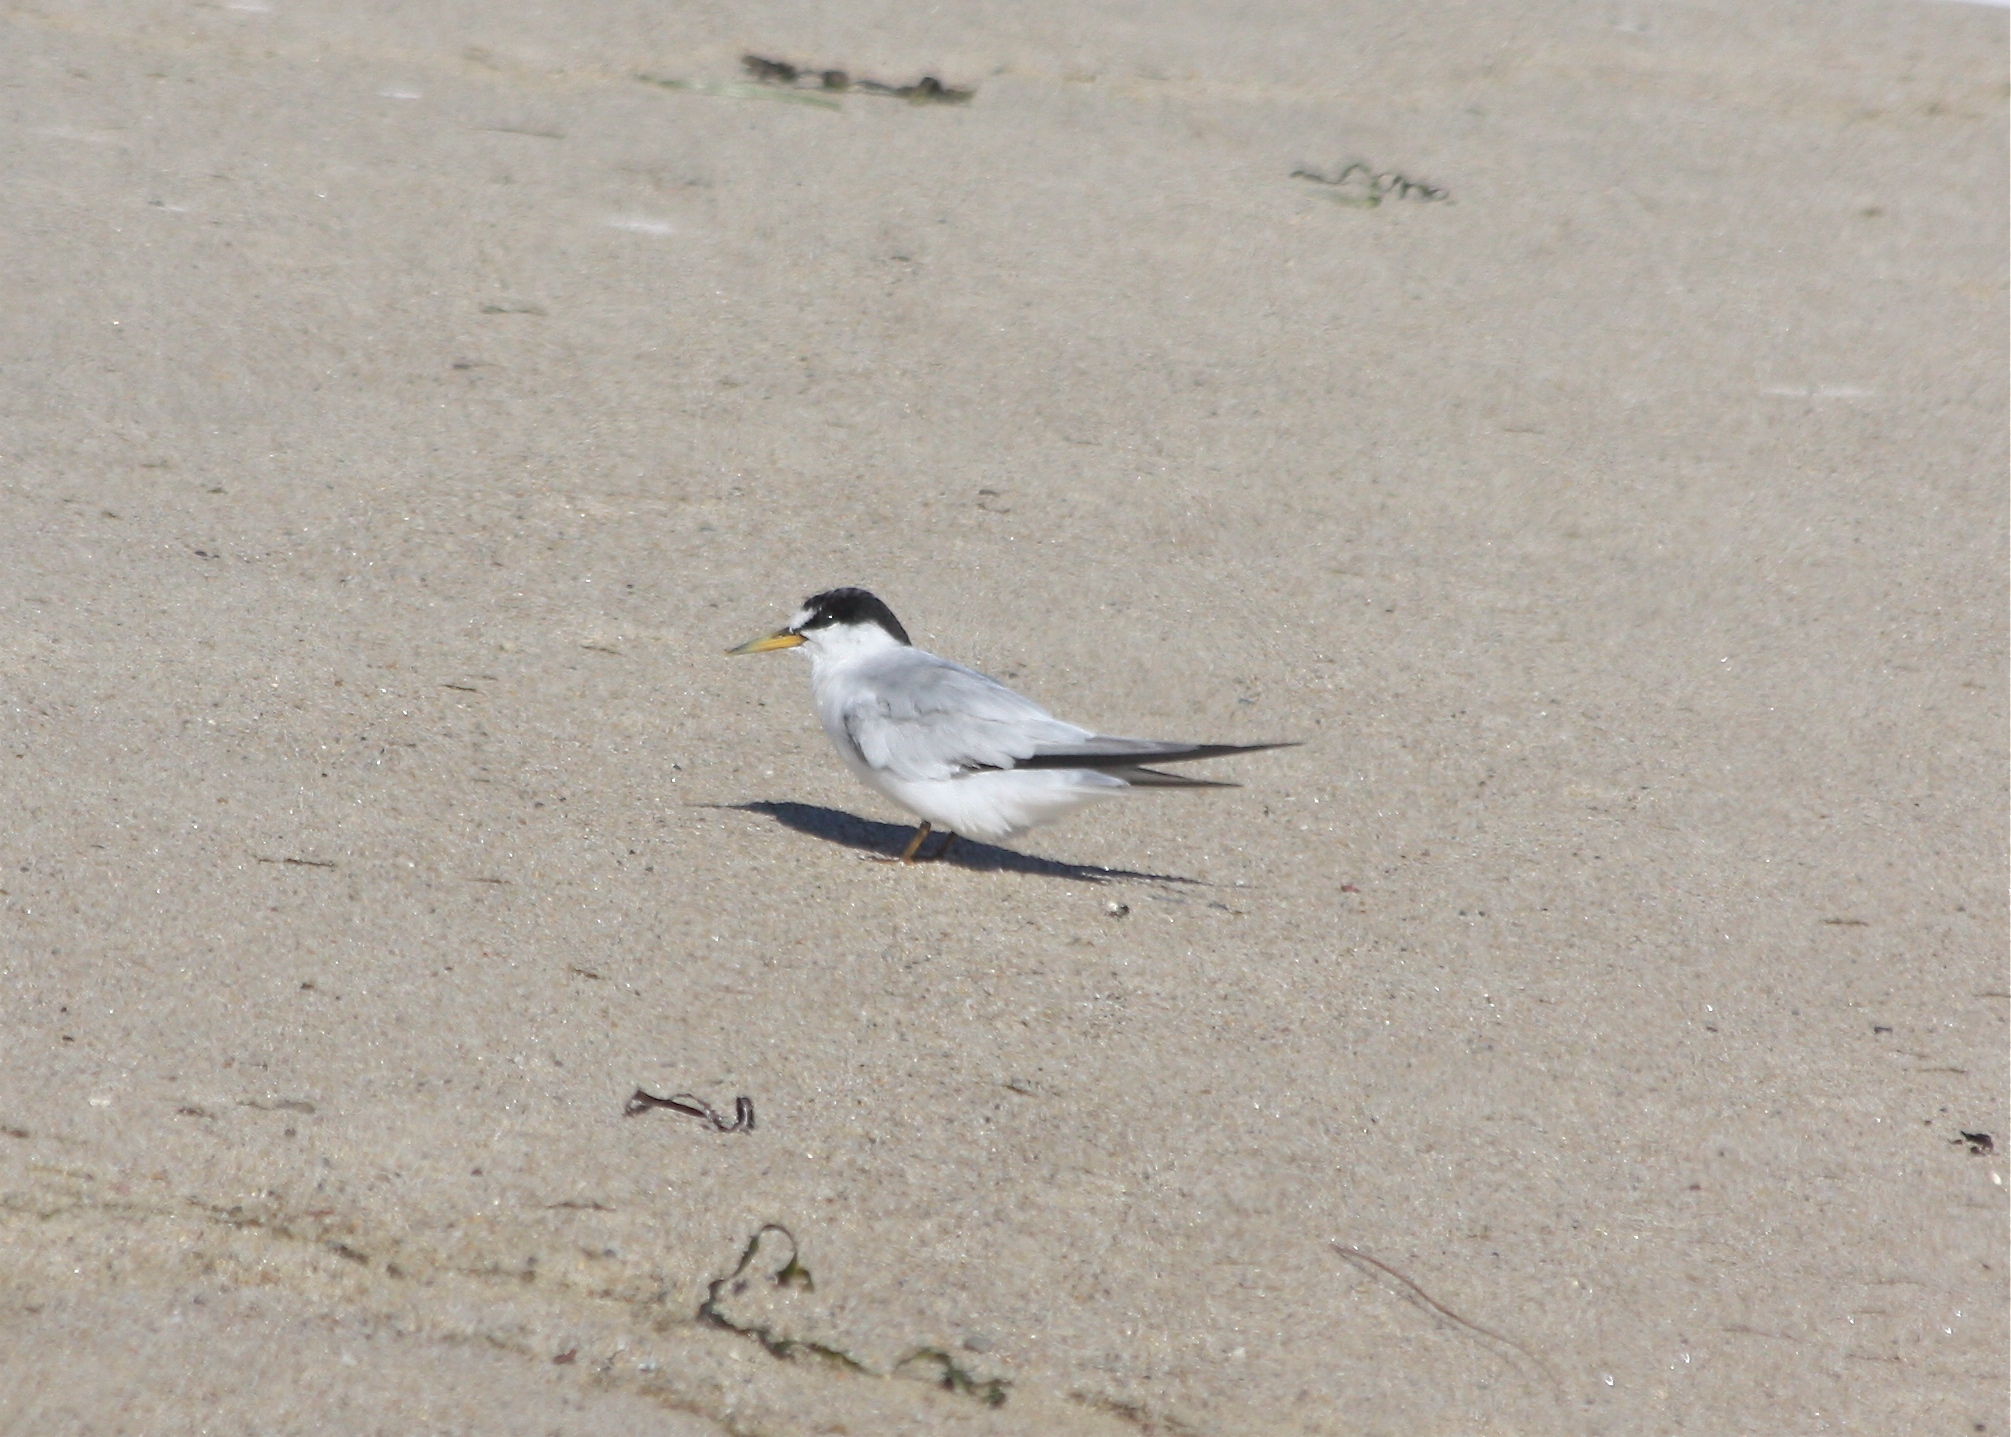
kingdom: Animalia
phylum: Chordata
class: Aves
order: Charadriiformes
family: Laridae
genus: Sternula
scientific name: Sternula antillarum
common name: Least tern
